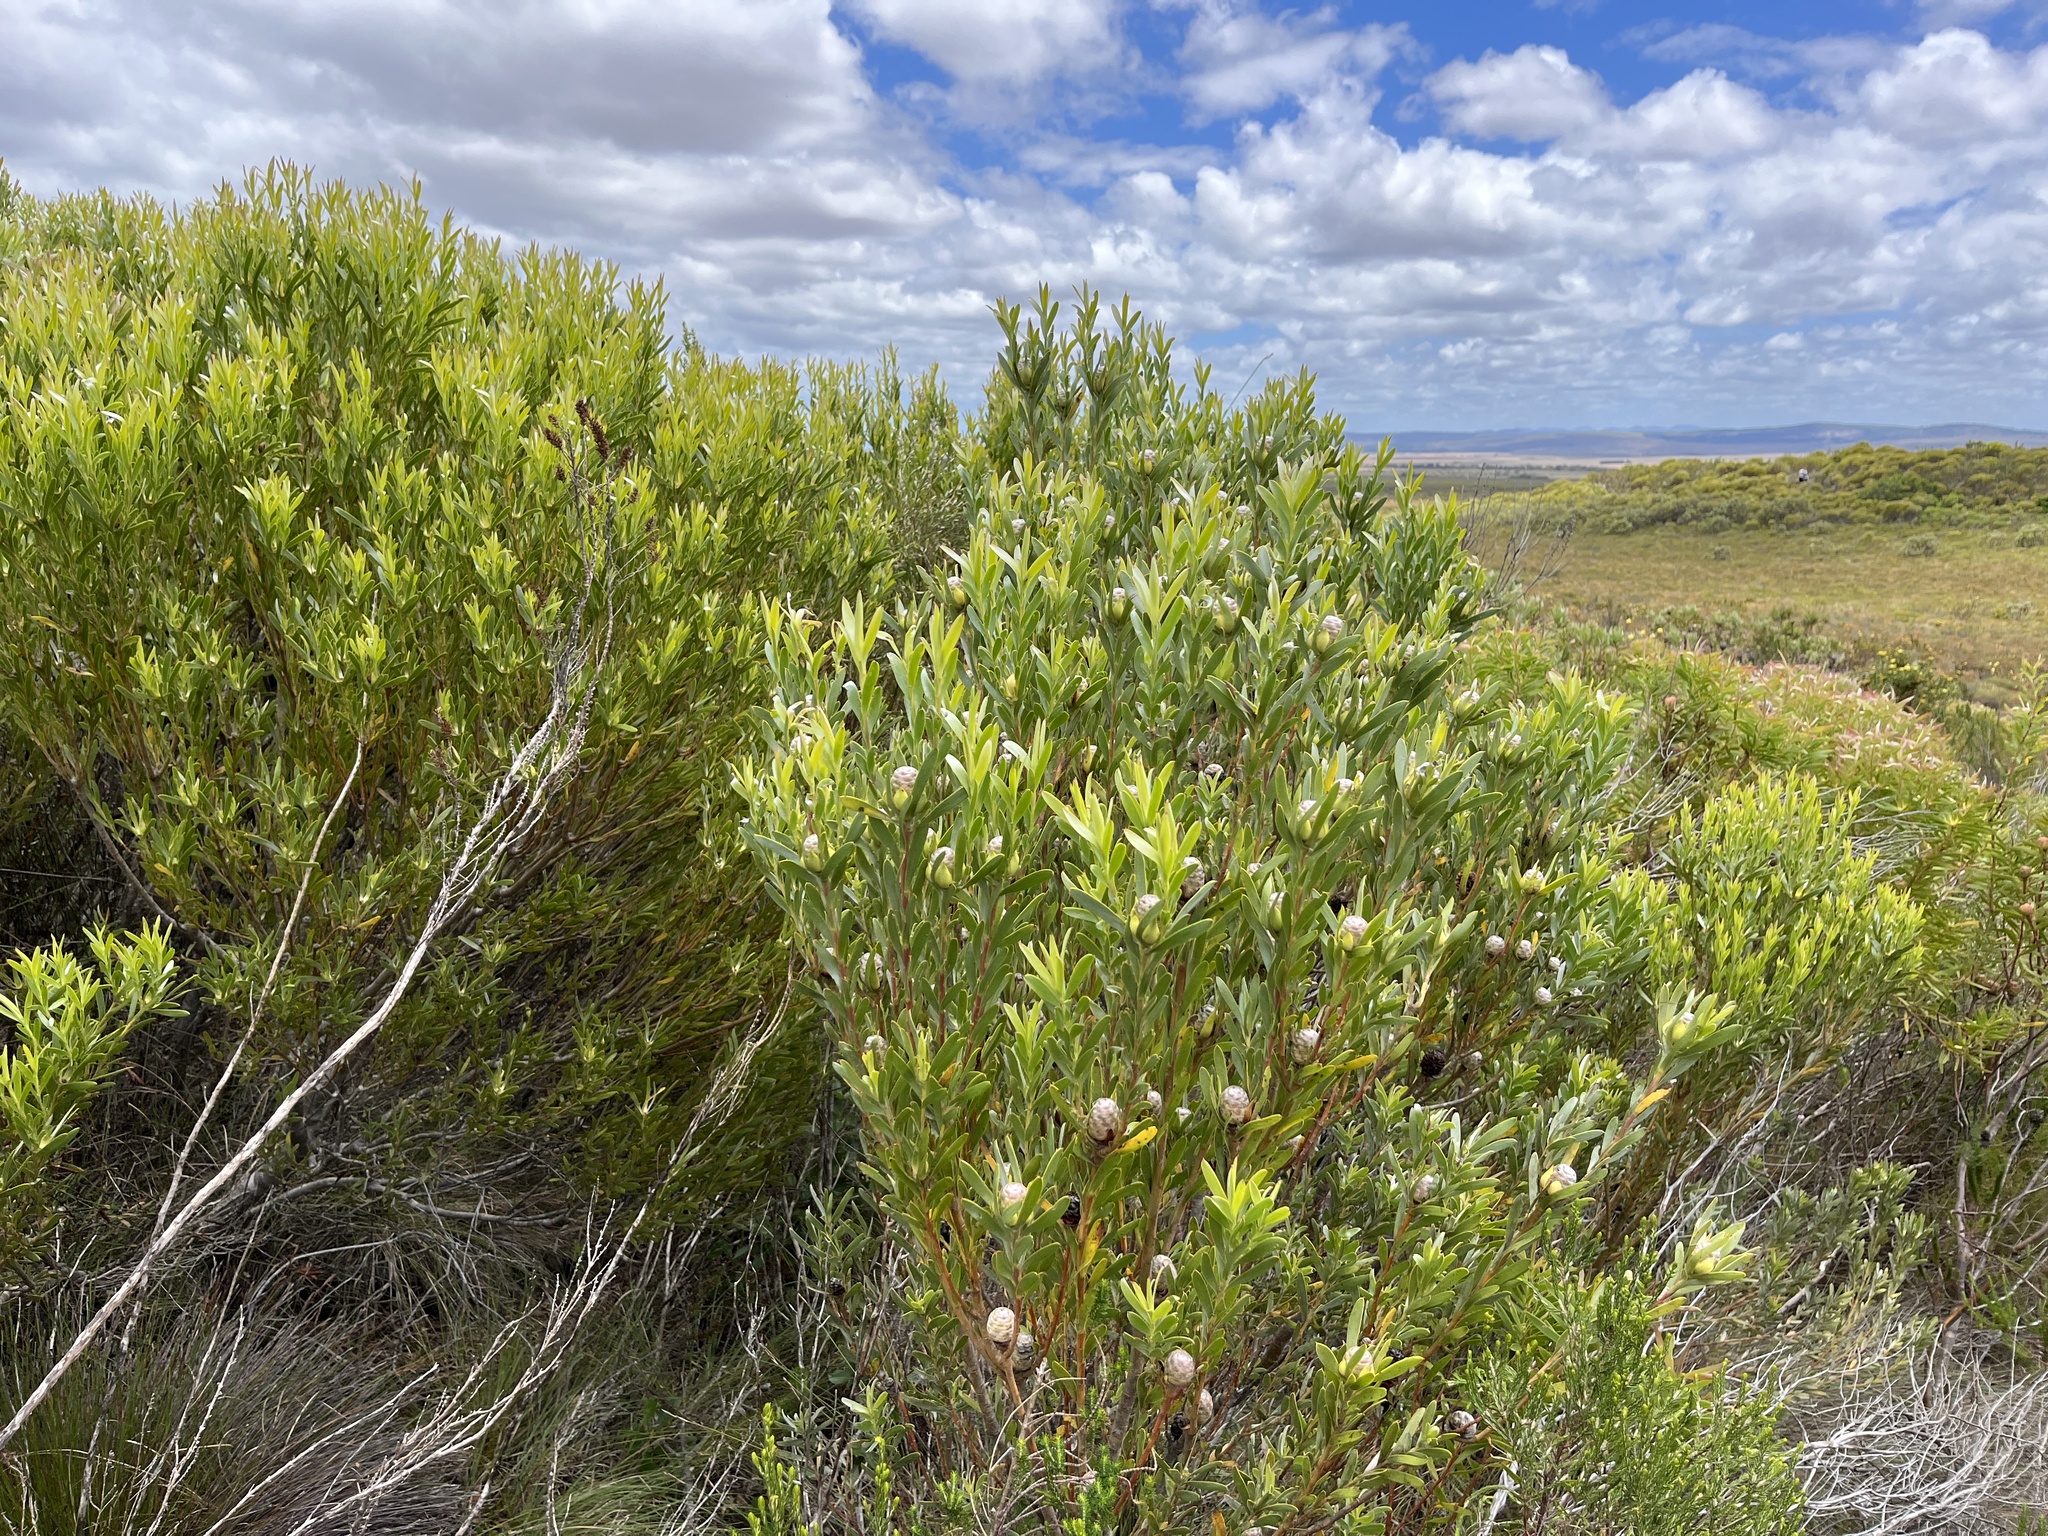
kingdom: Plantae
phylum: Tracheophyta
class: Magnoliopsida
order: Proteales
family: Proteaceae
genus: Leucadendron
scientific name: Leucadendron meridianum
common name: Limestone conebush
